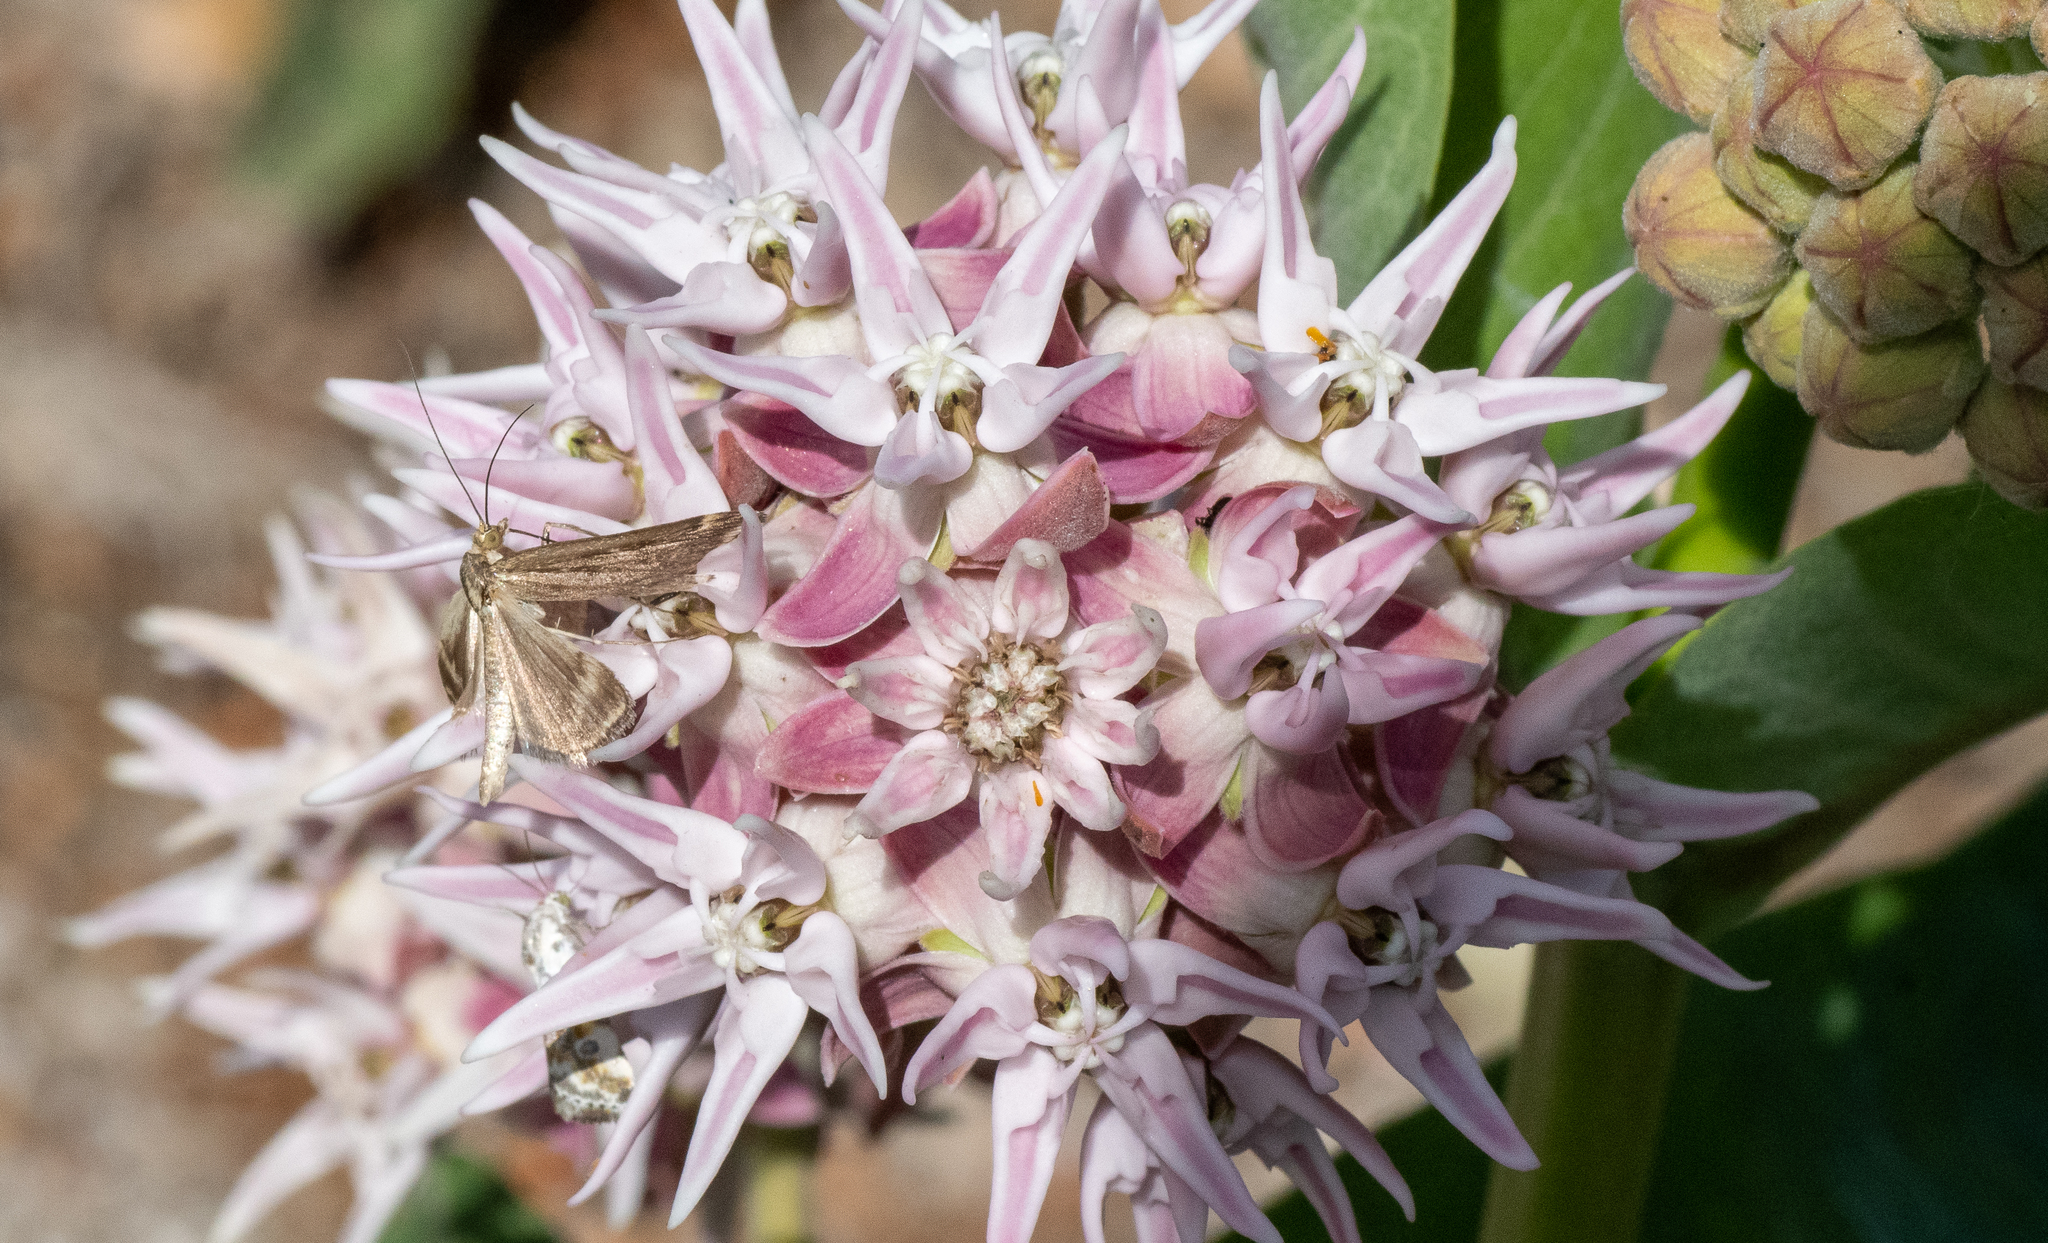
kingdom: Plantae
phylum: Tracheophyta
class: Magnoliopsida
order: Gentianales
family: Apocynaceae
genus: Asclepias
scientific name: Asclepias speciosa
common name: Showy milkweed
